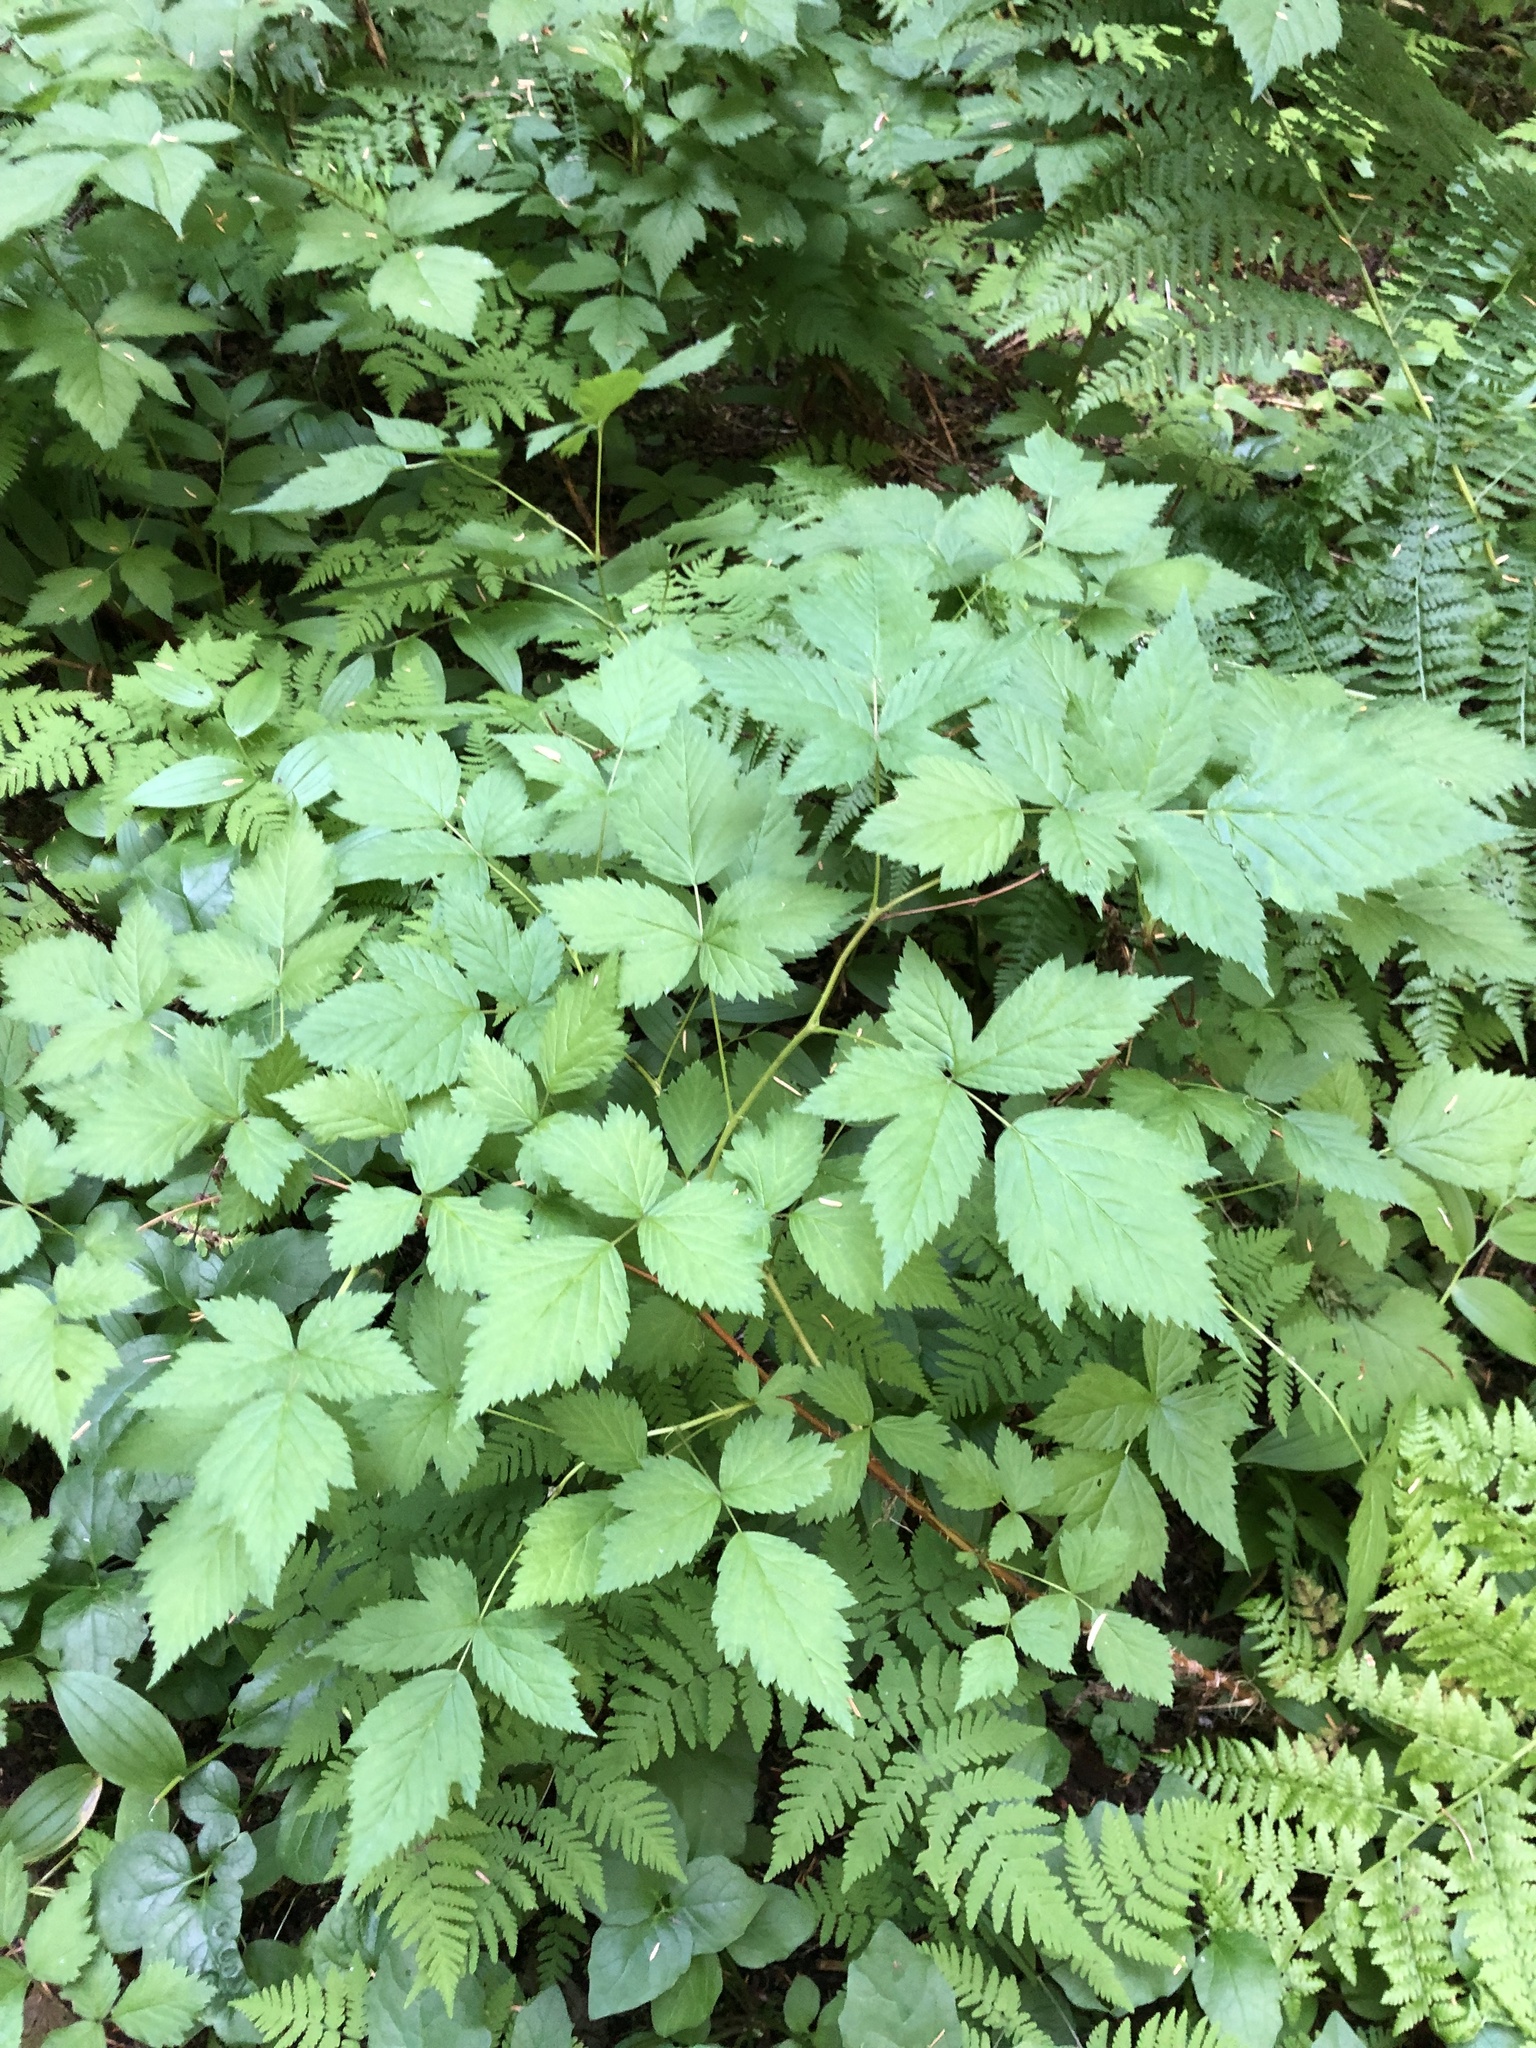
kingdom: Plantae
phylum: Tracheophyta
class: Magnoliopsida
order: Rosales
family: Rosaceae
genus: Rubus
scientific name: Rubus spectabilis
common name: Salmonberry
